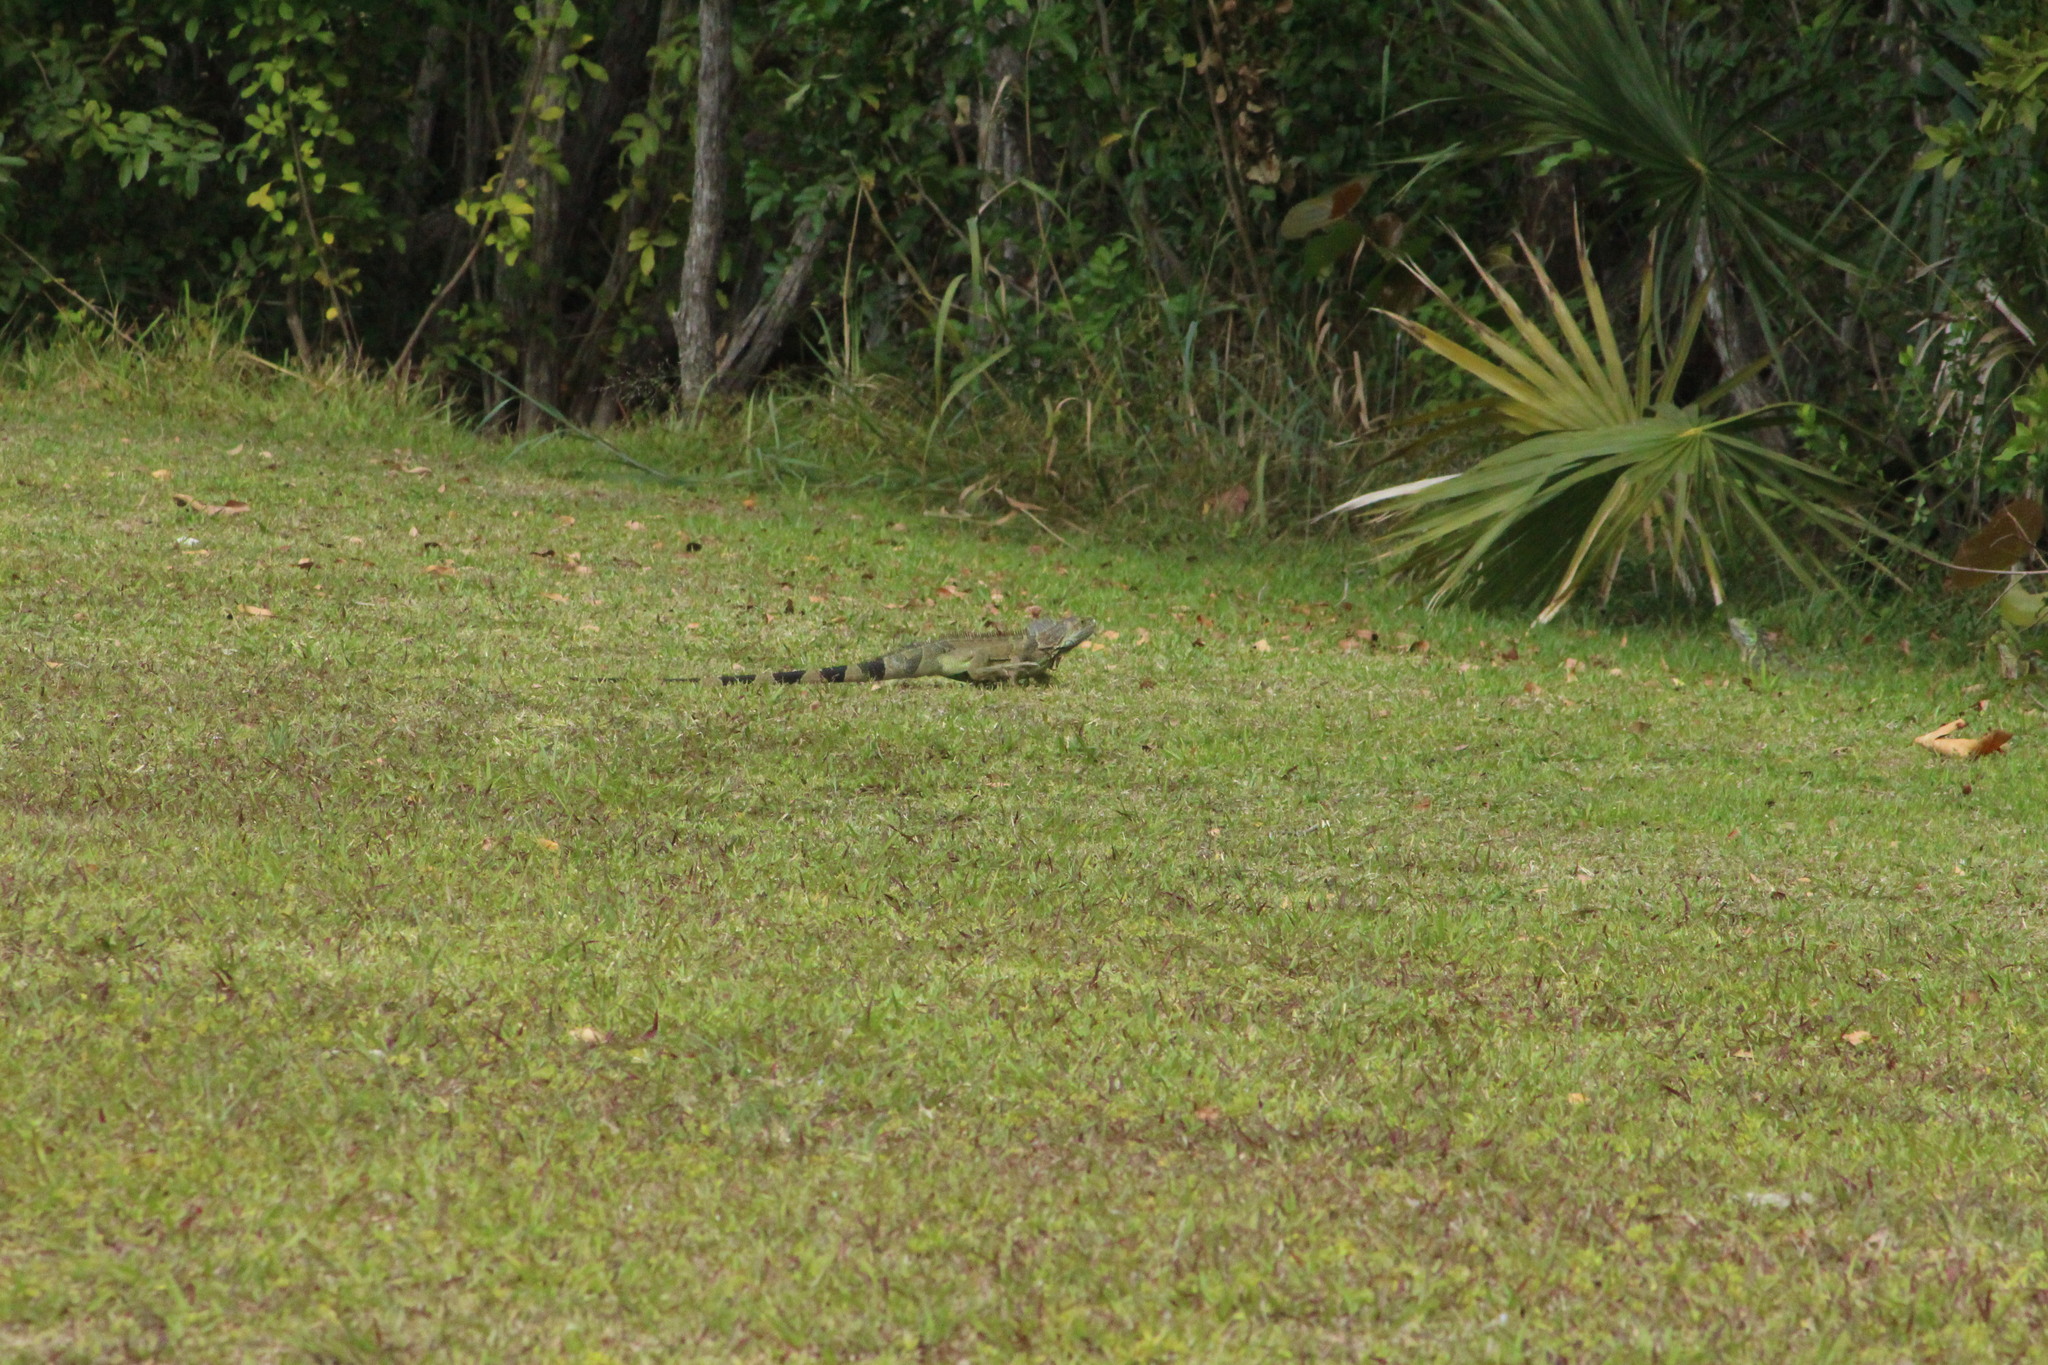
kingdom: Animalia
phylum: Chordata
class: Squamata
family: Iguanidae
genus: Iguana
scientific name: Iguana iguana
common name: Green iguana
